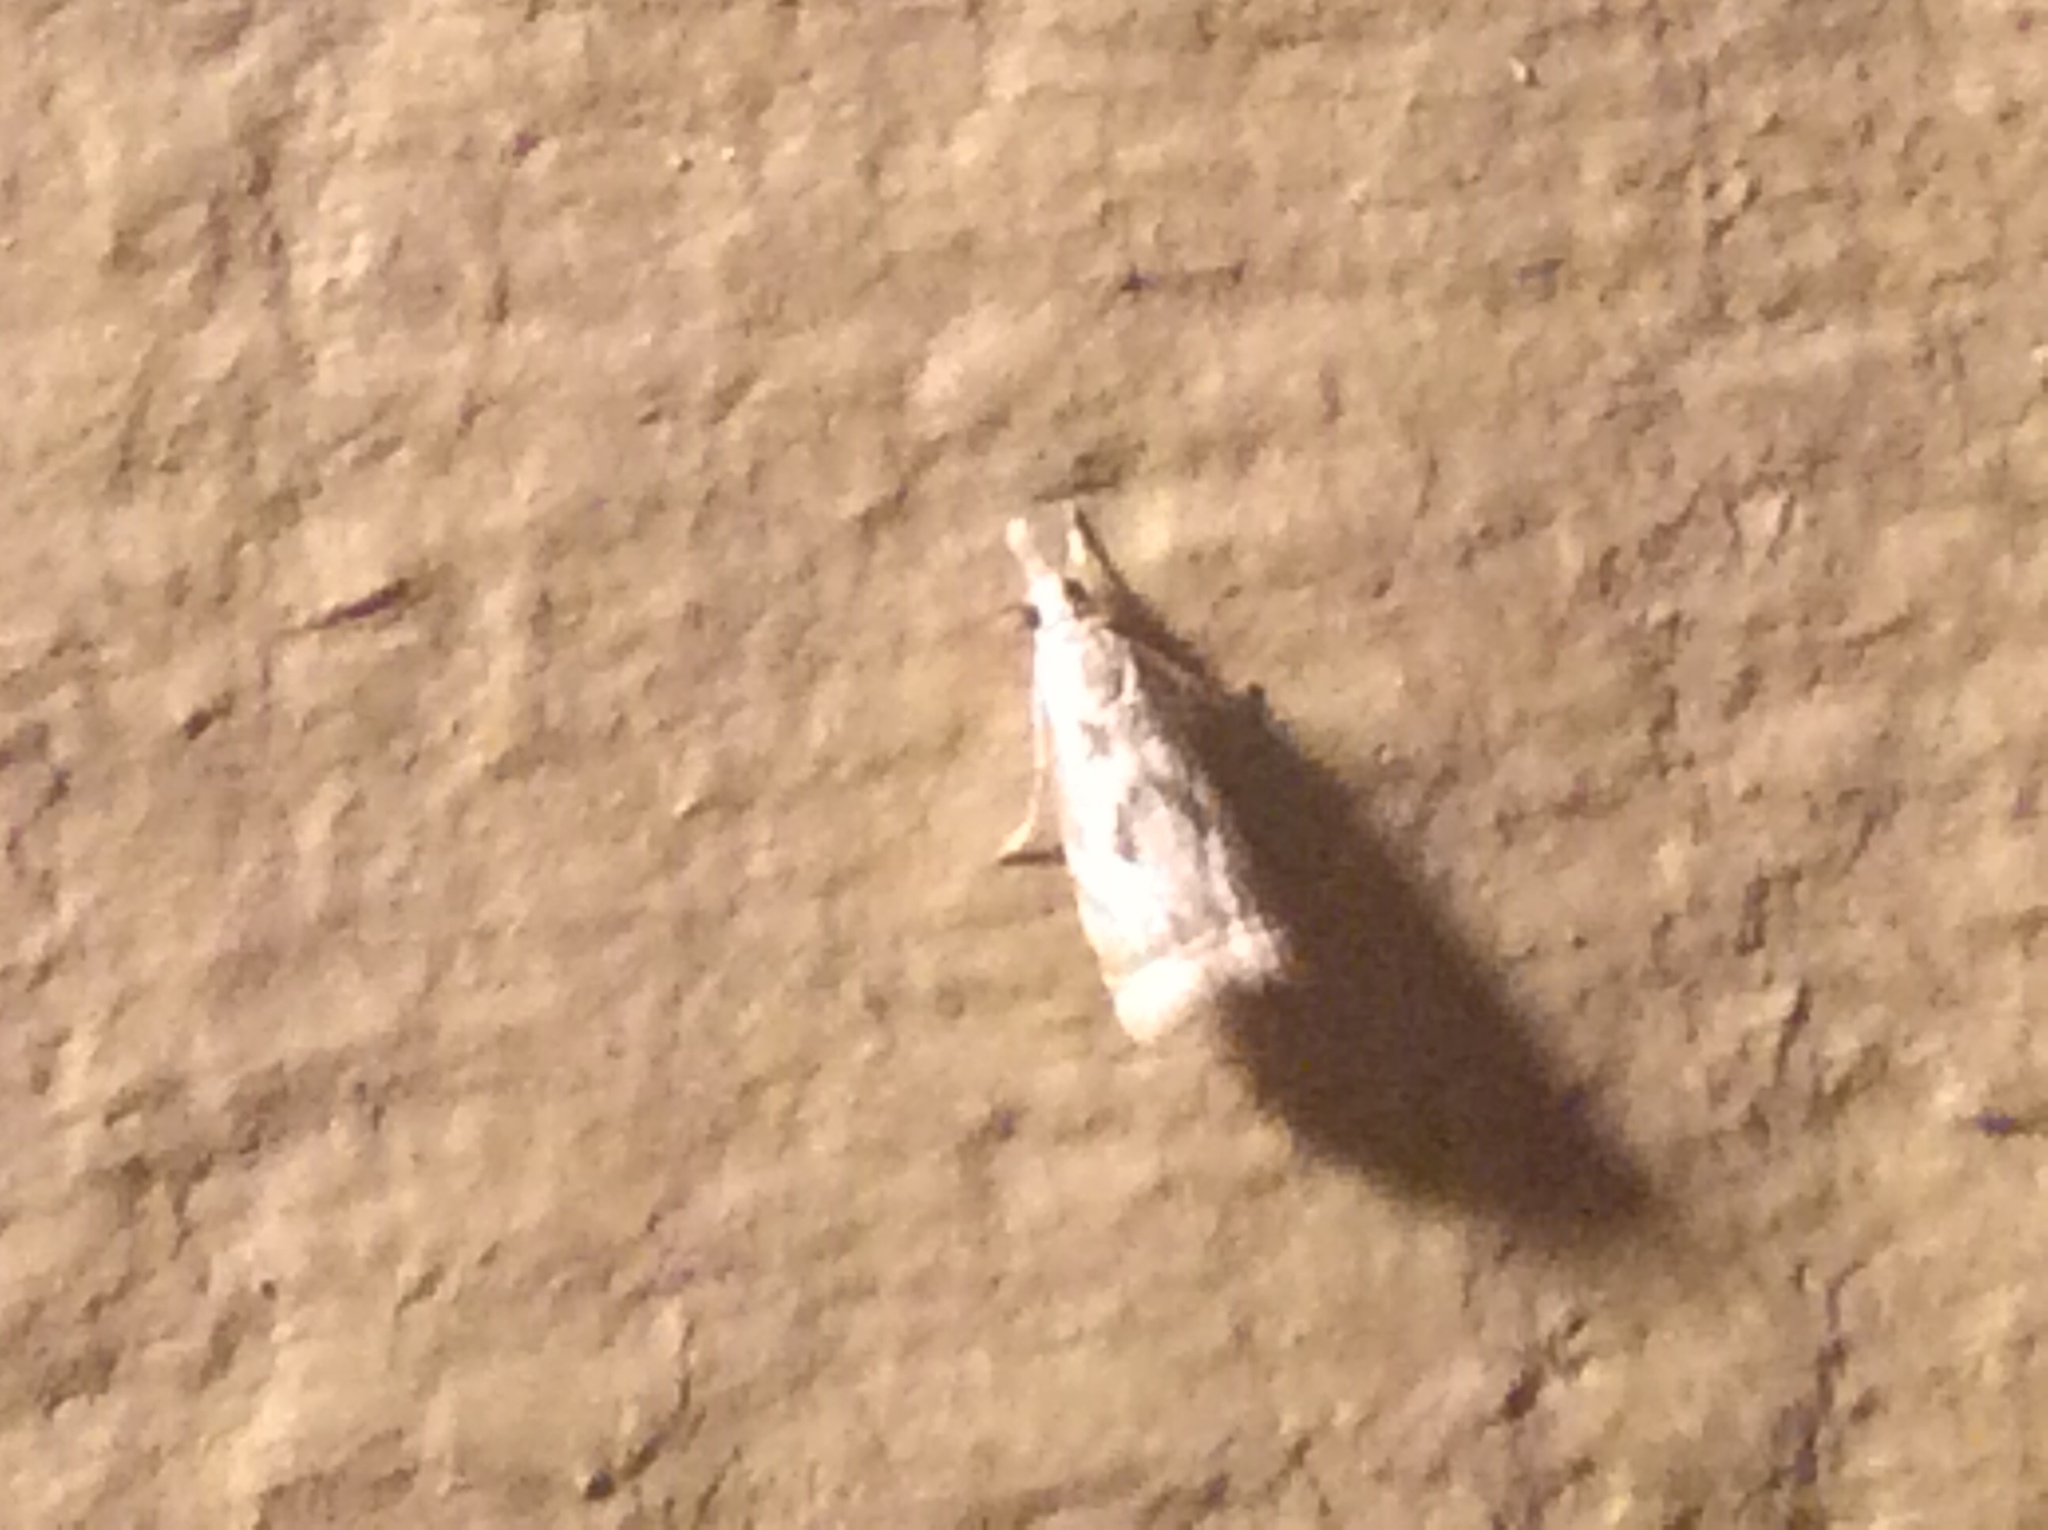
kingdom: Animalia
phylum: Arthropoda
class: Insecta
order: Lepidoptera
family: Crambidae
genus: Microcrambus
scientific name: Microcrambus elegans
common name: Elegant grass-veneer
